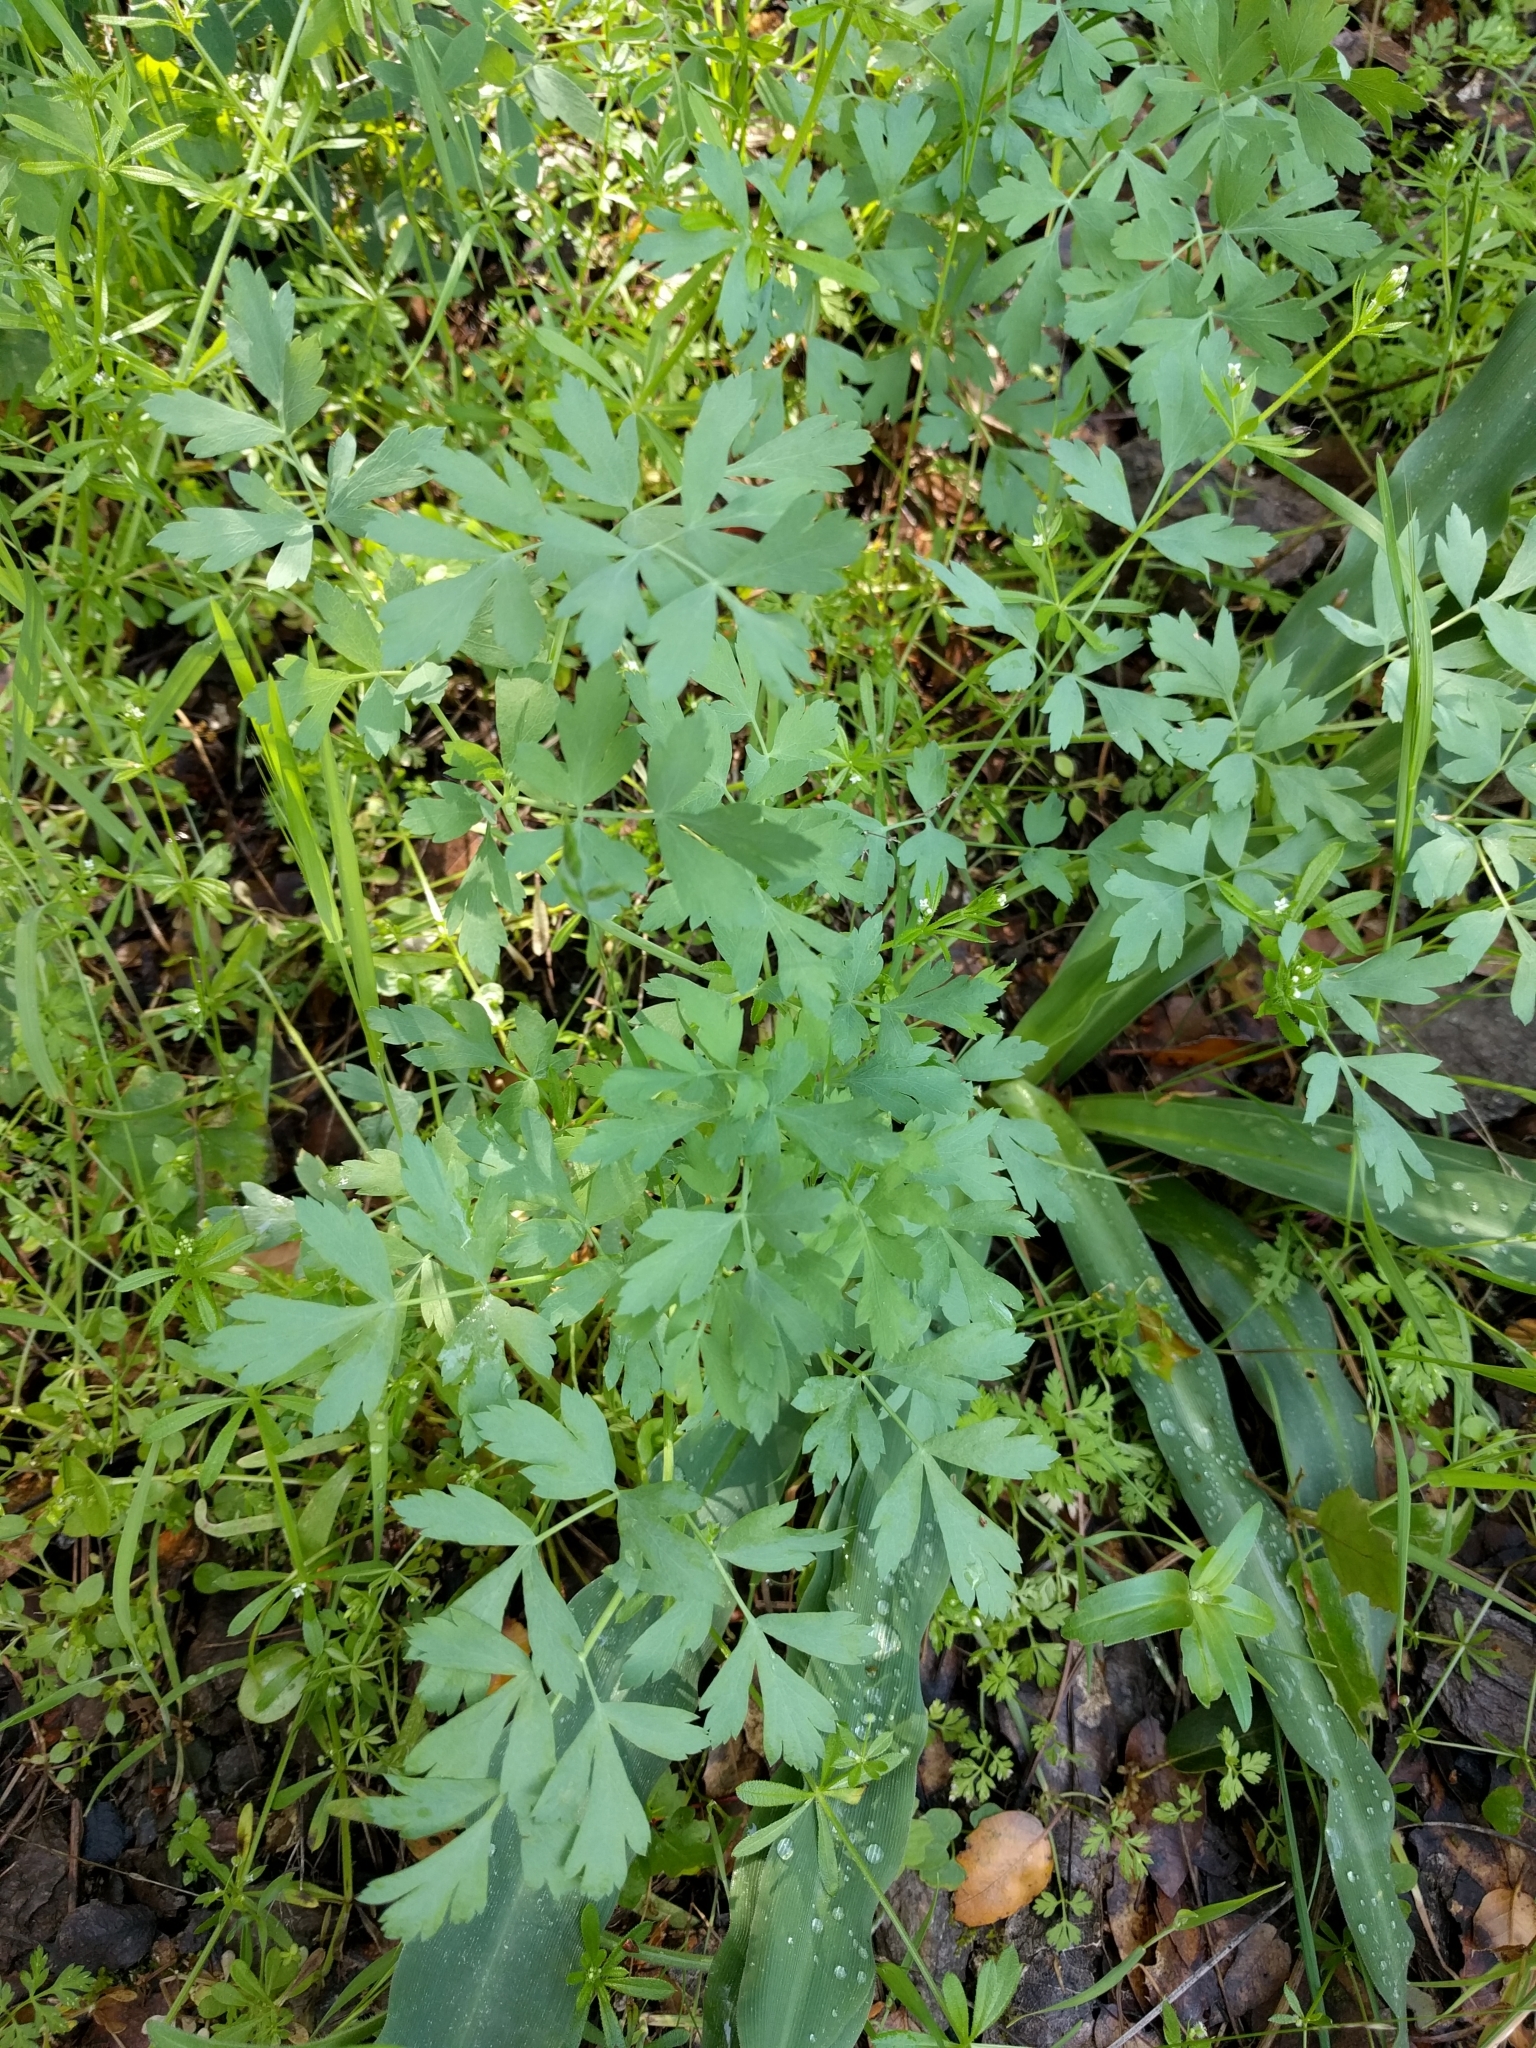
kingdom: Plantae
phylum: Tracheophyta
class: Magnoliopsida
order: Apiales
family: Apiaceae
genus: Lomatium
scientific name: Lomatium californicum
